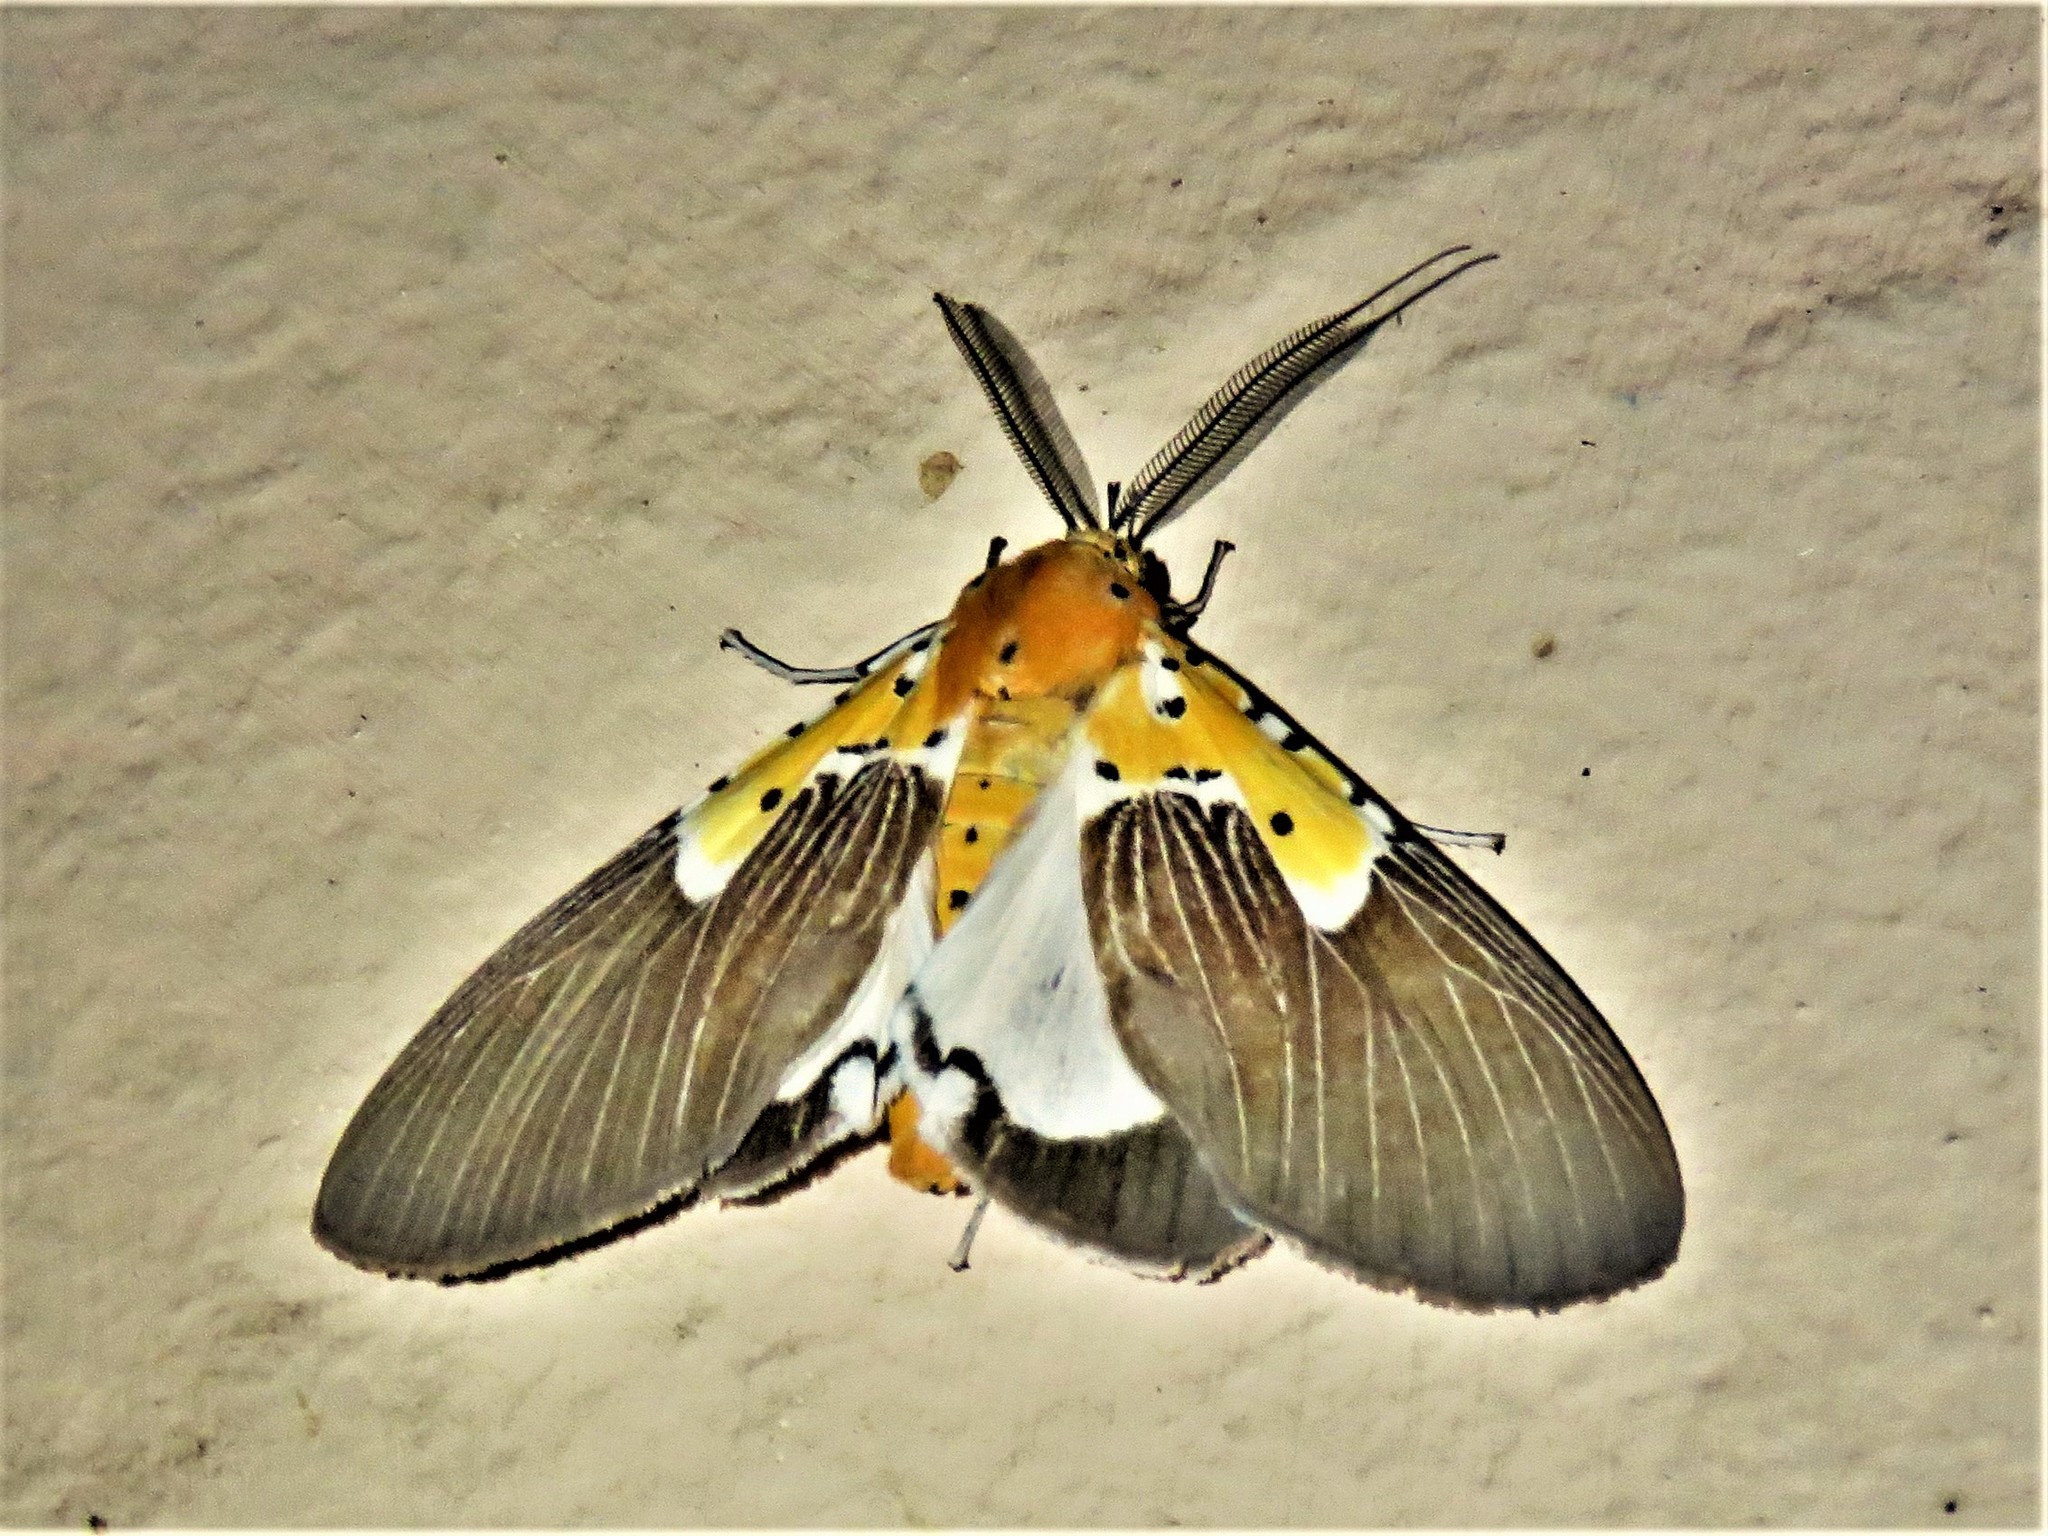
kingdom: Animalia
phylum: Arthropoda
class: Insecta
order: Lepidoptera
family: Erebidae
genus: Asota
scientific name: Asota speciosa
